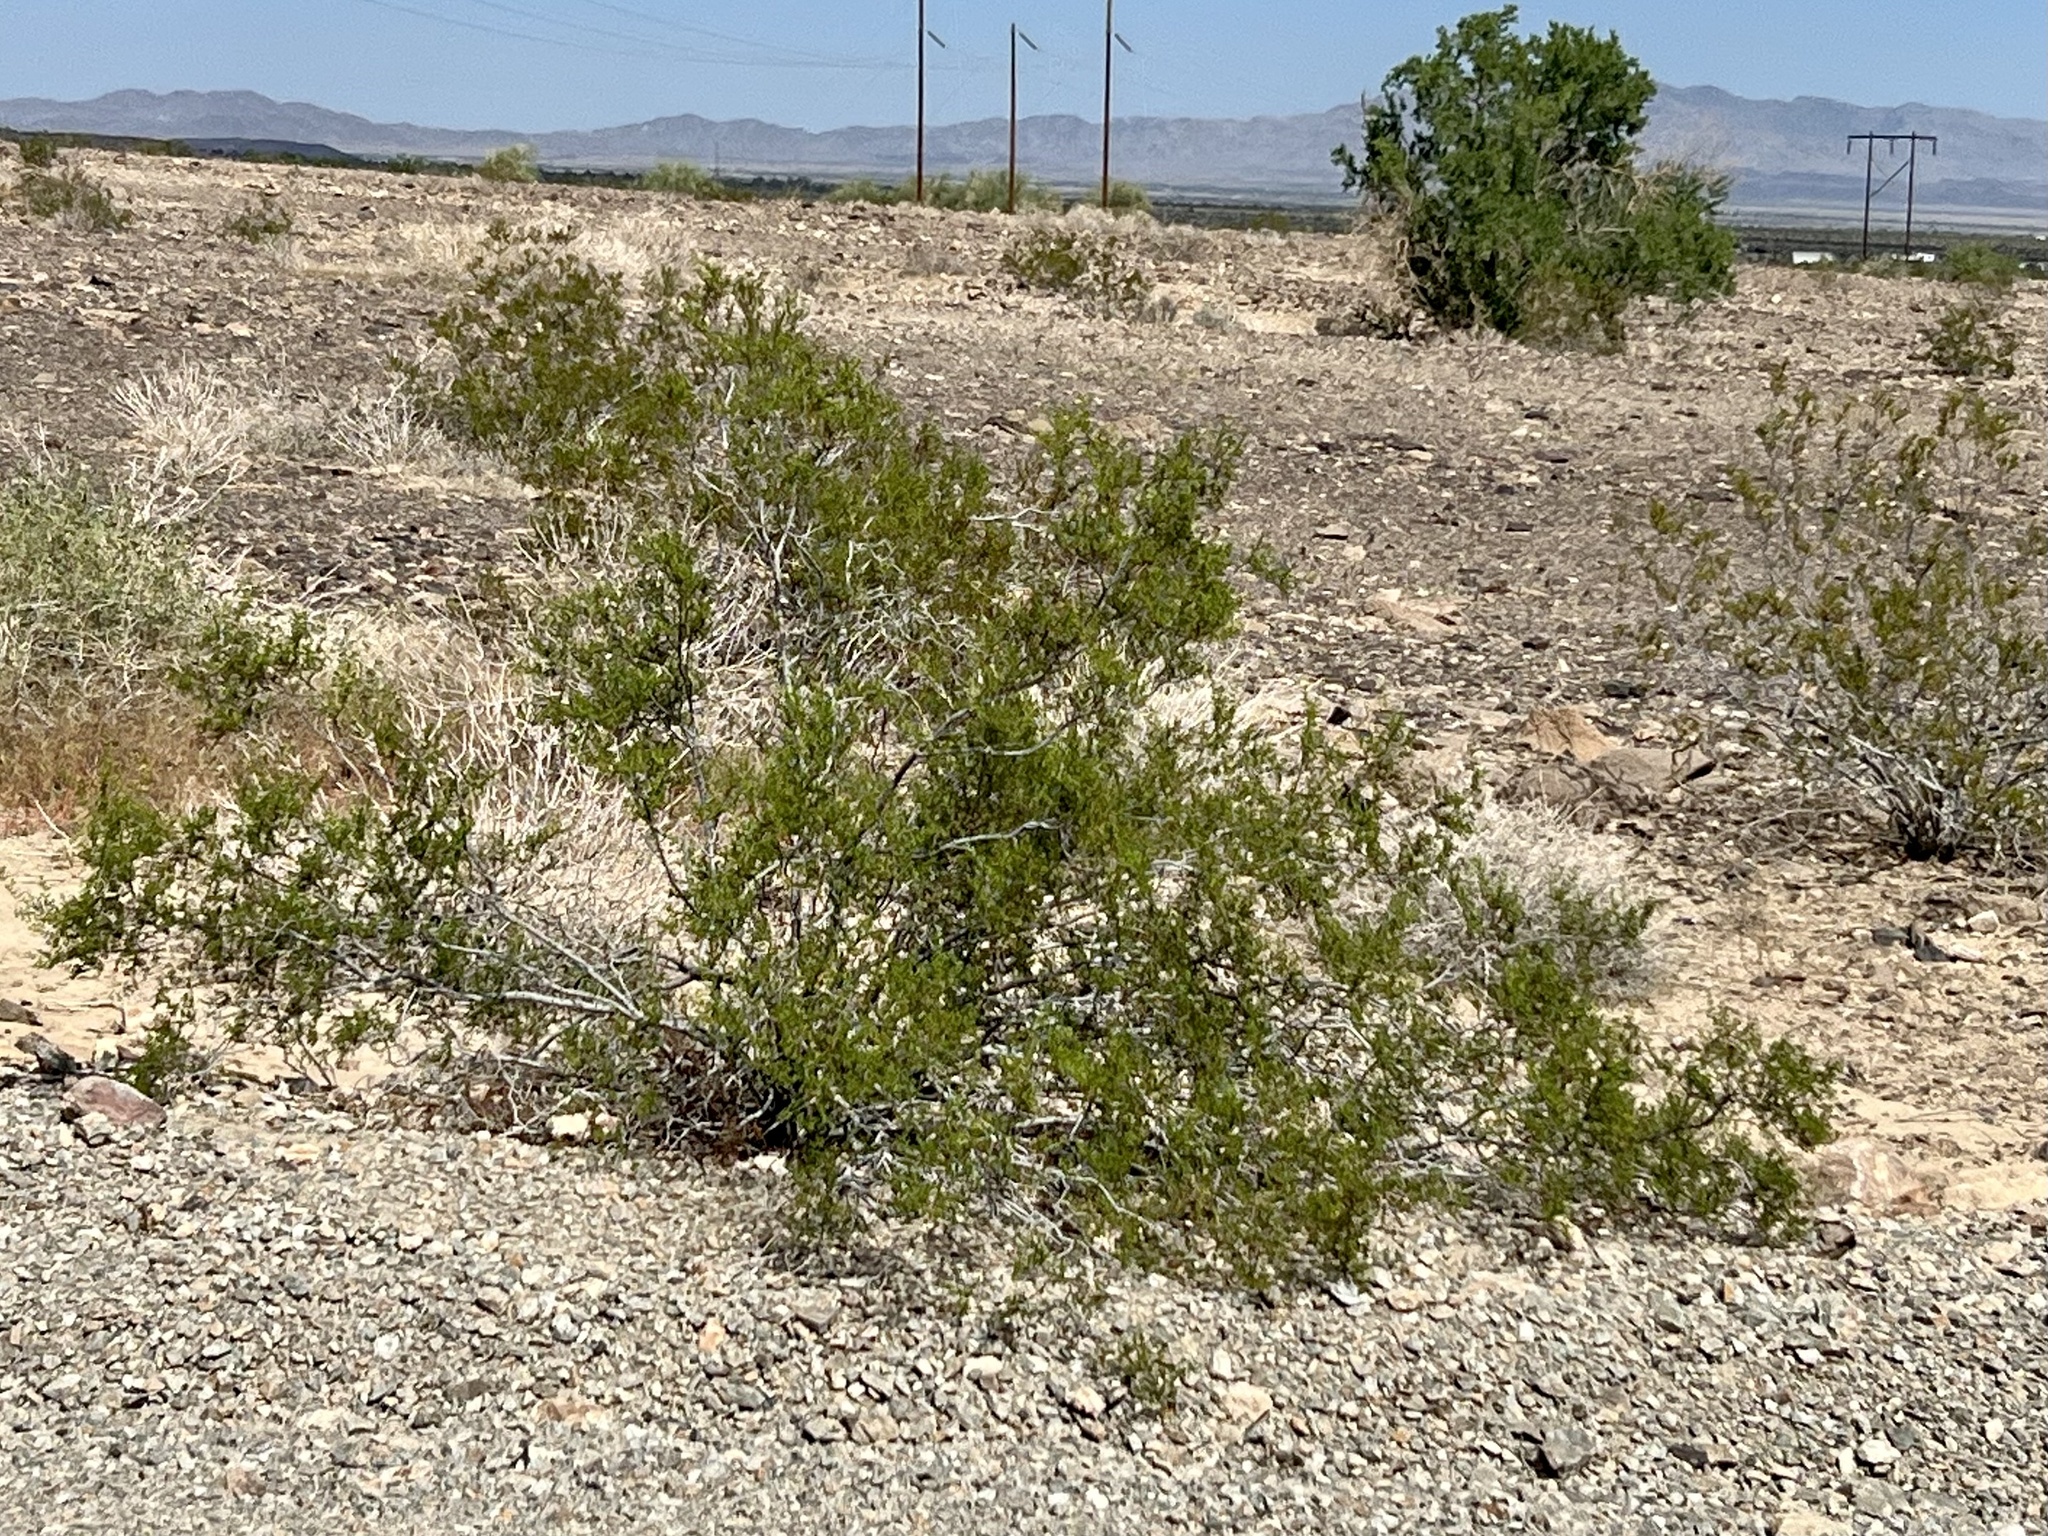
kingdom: Plantae
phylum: Tracheophyta
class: Magnoliopsida
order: Zygophyllales
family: Zygophyllaceae
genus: Larrea
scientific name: Larrea tridentata
